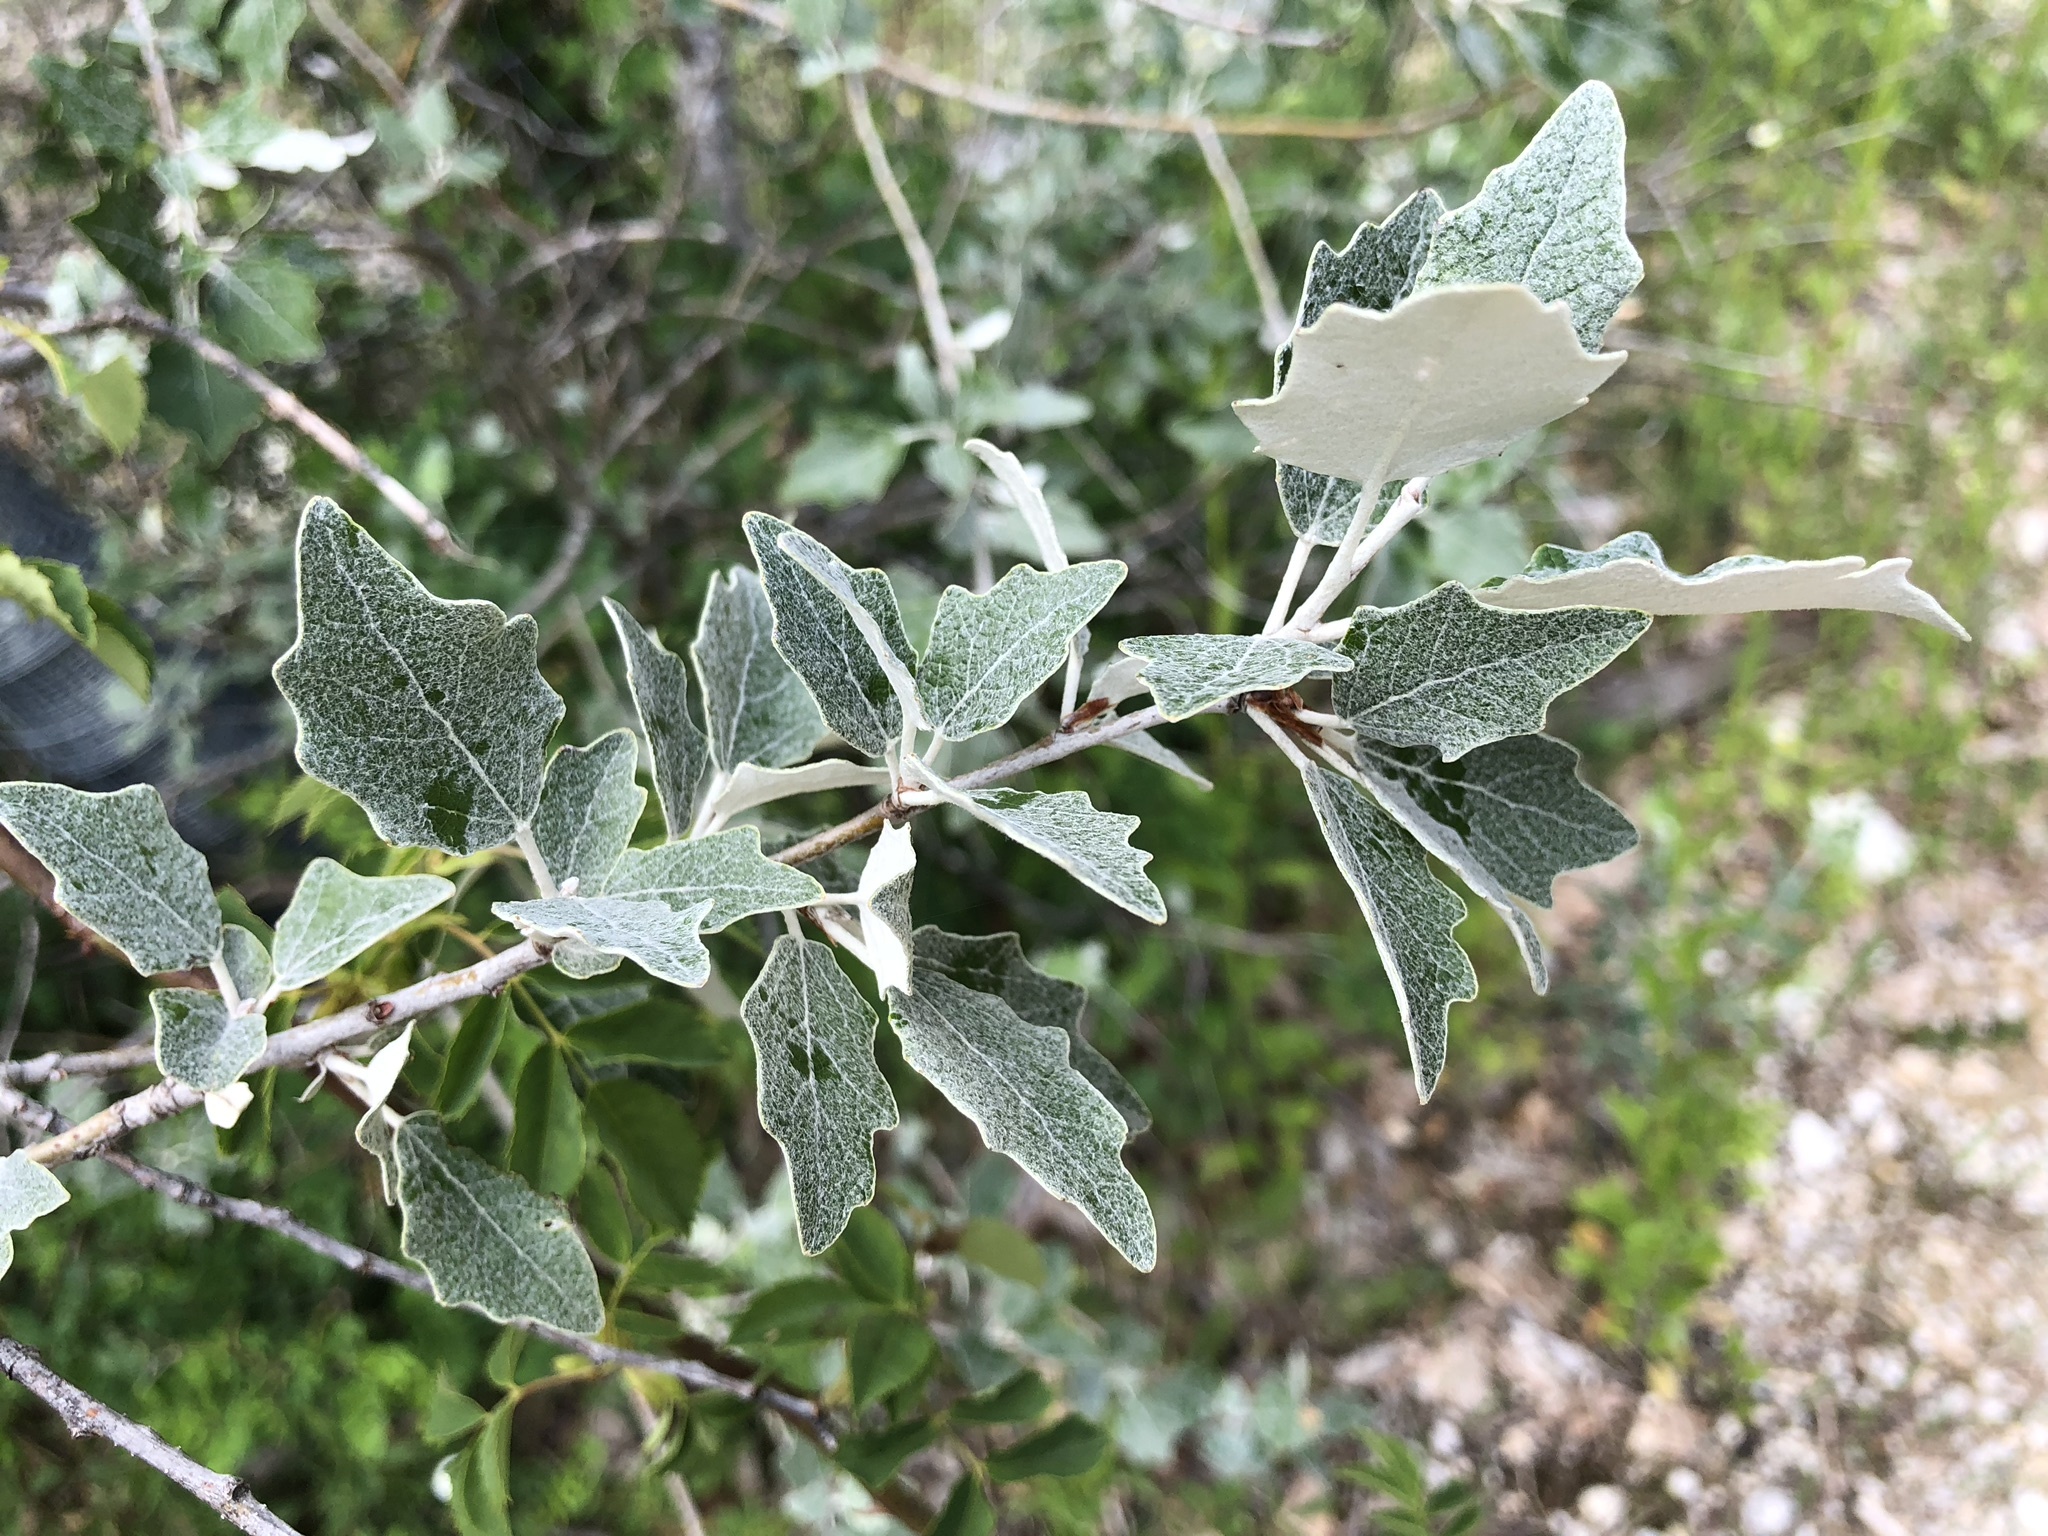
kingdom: Plantae
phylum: Tracheophyta
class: Magnoliopsida
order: Malpighiales
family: Salicaceae
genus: Populus
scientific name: Populus alba
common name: White poplar
